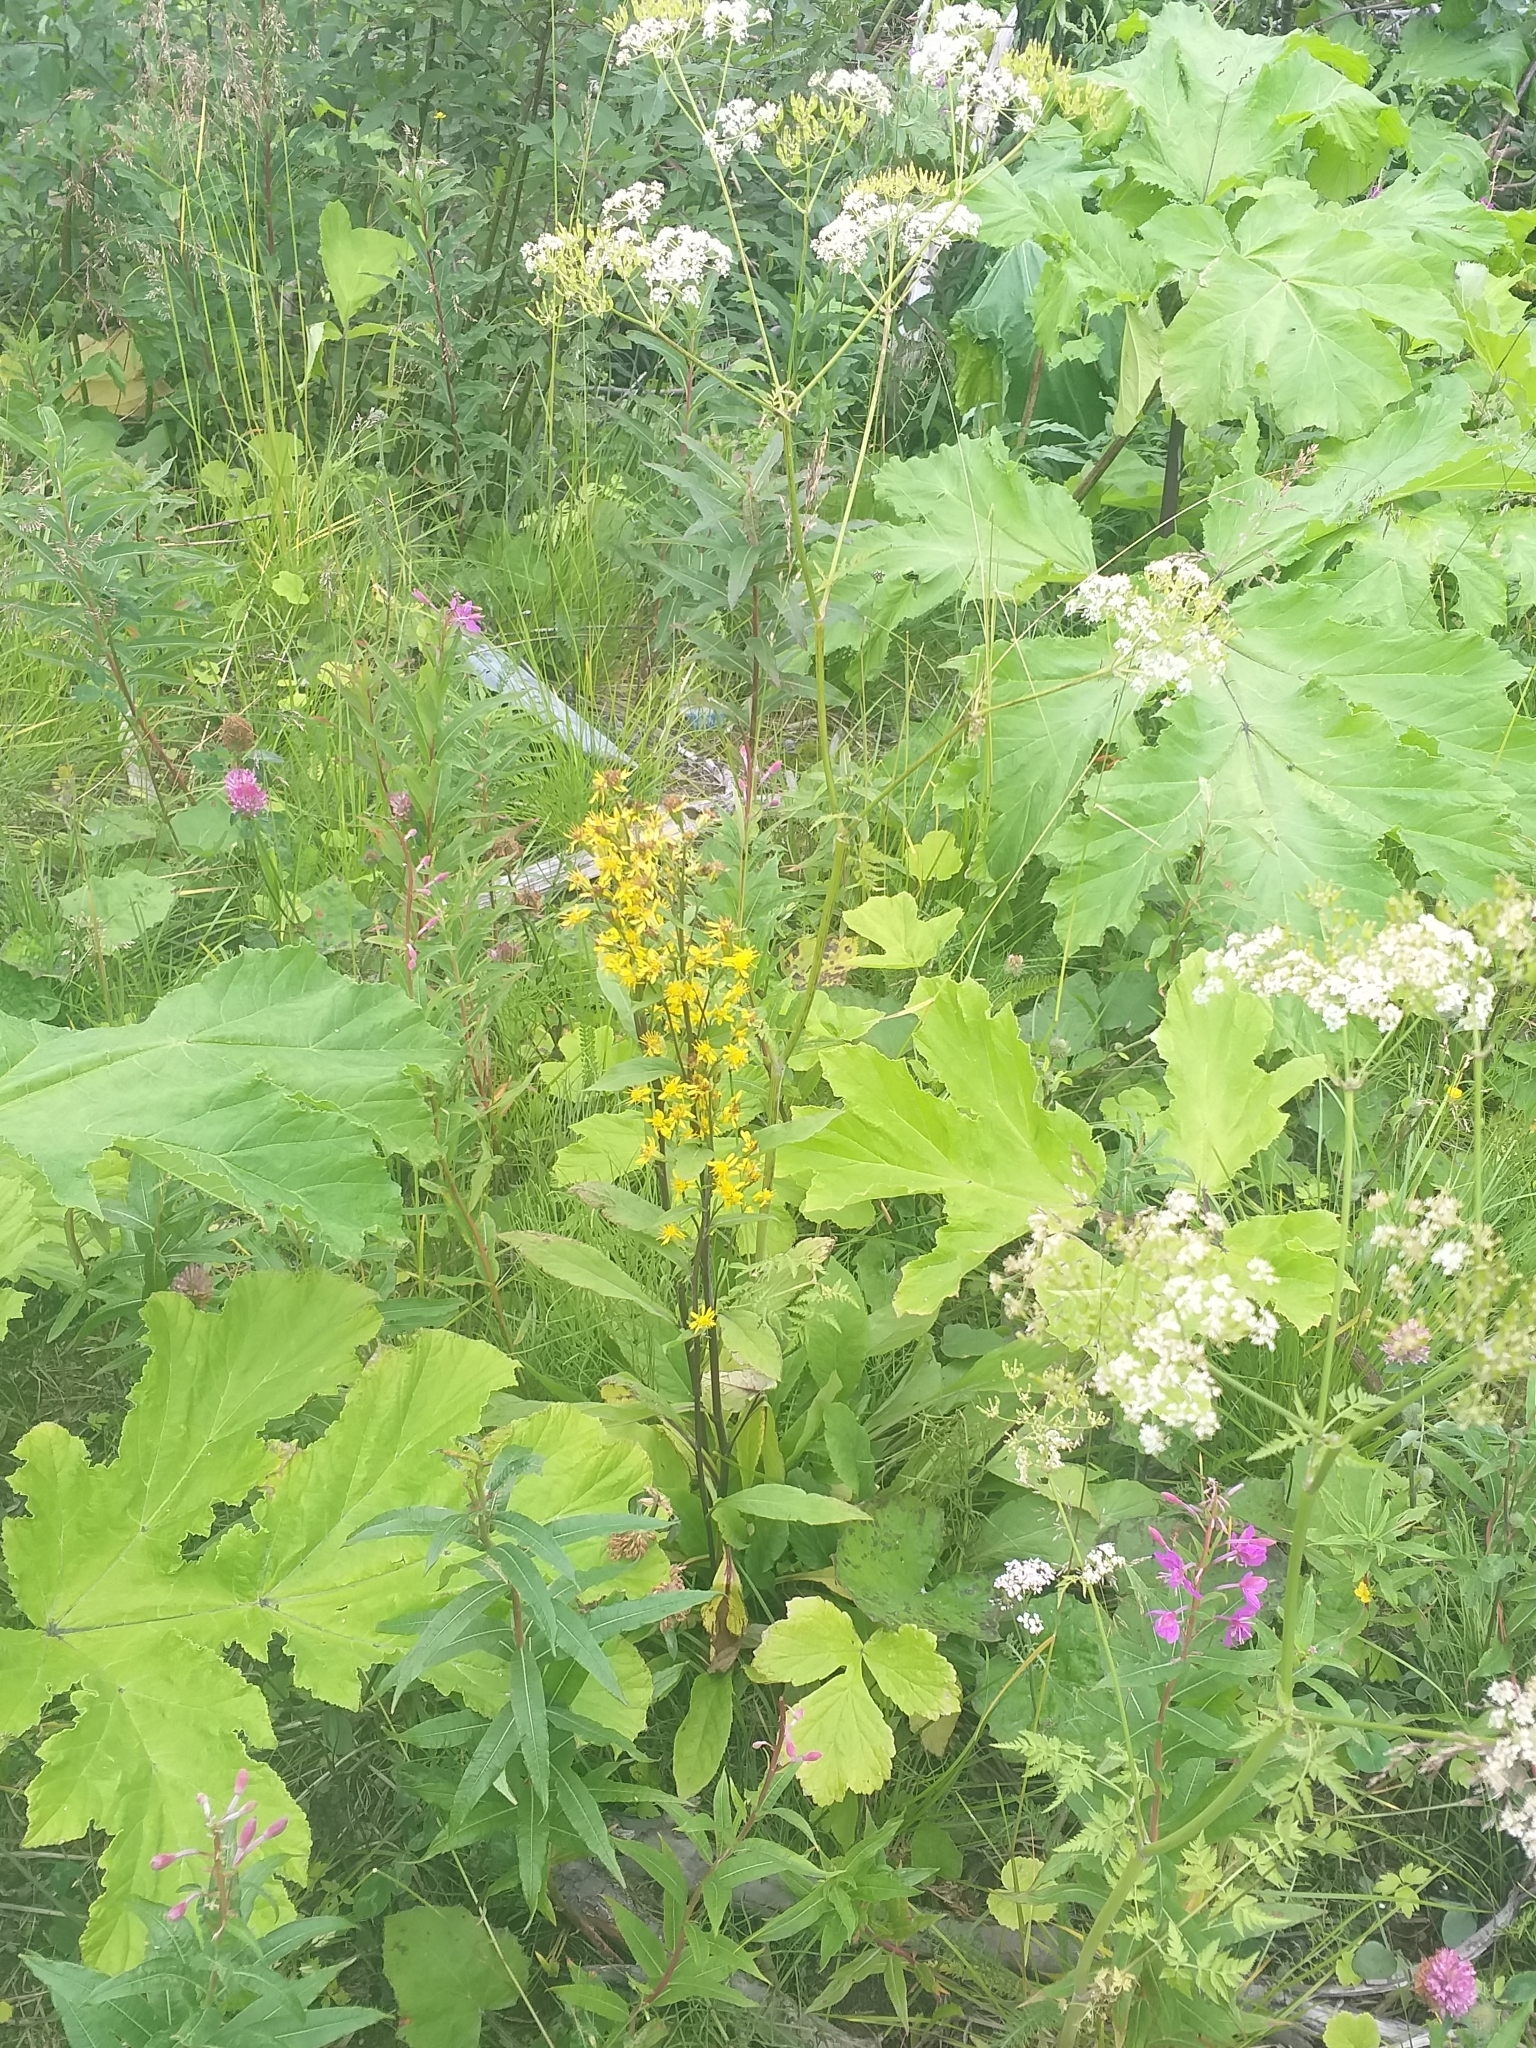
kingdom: Plantae
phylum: Tracheophyta
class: Magnoliopsida
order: Asterales
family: Asteraceae
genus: Solidago
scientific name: Solidago virgaurea
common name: Goldenrod
